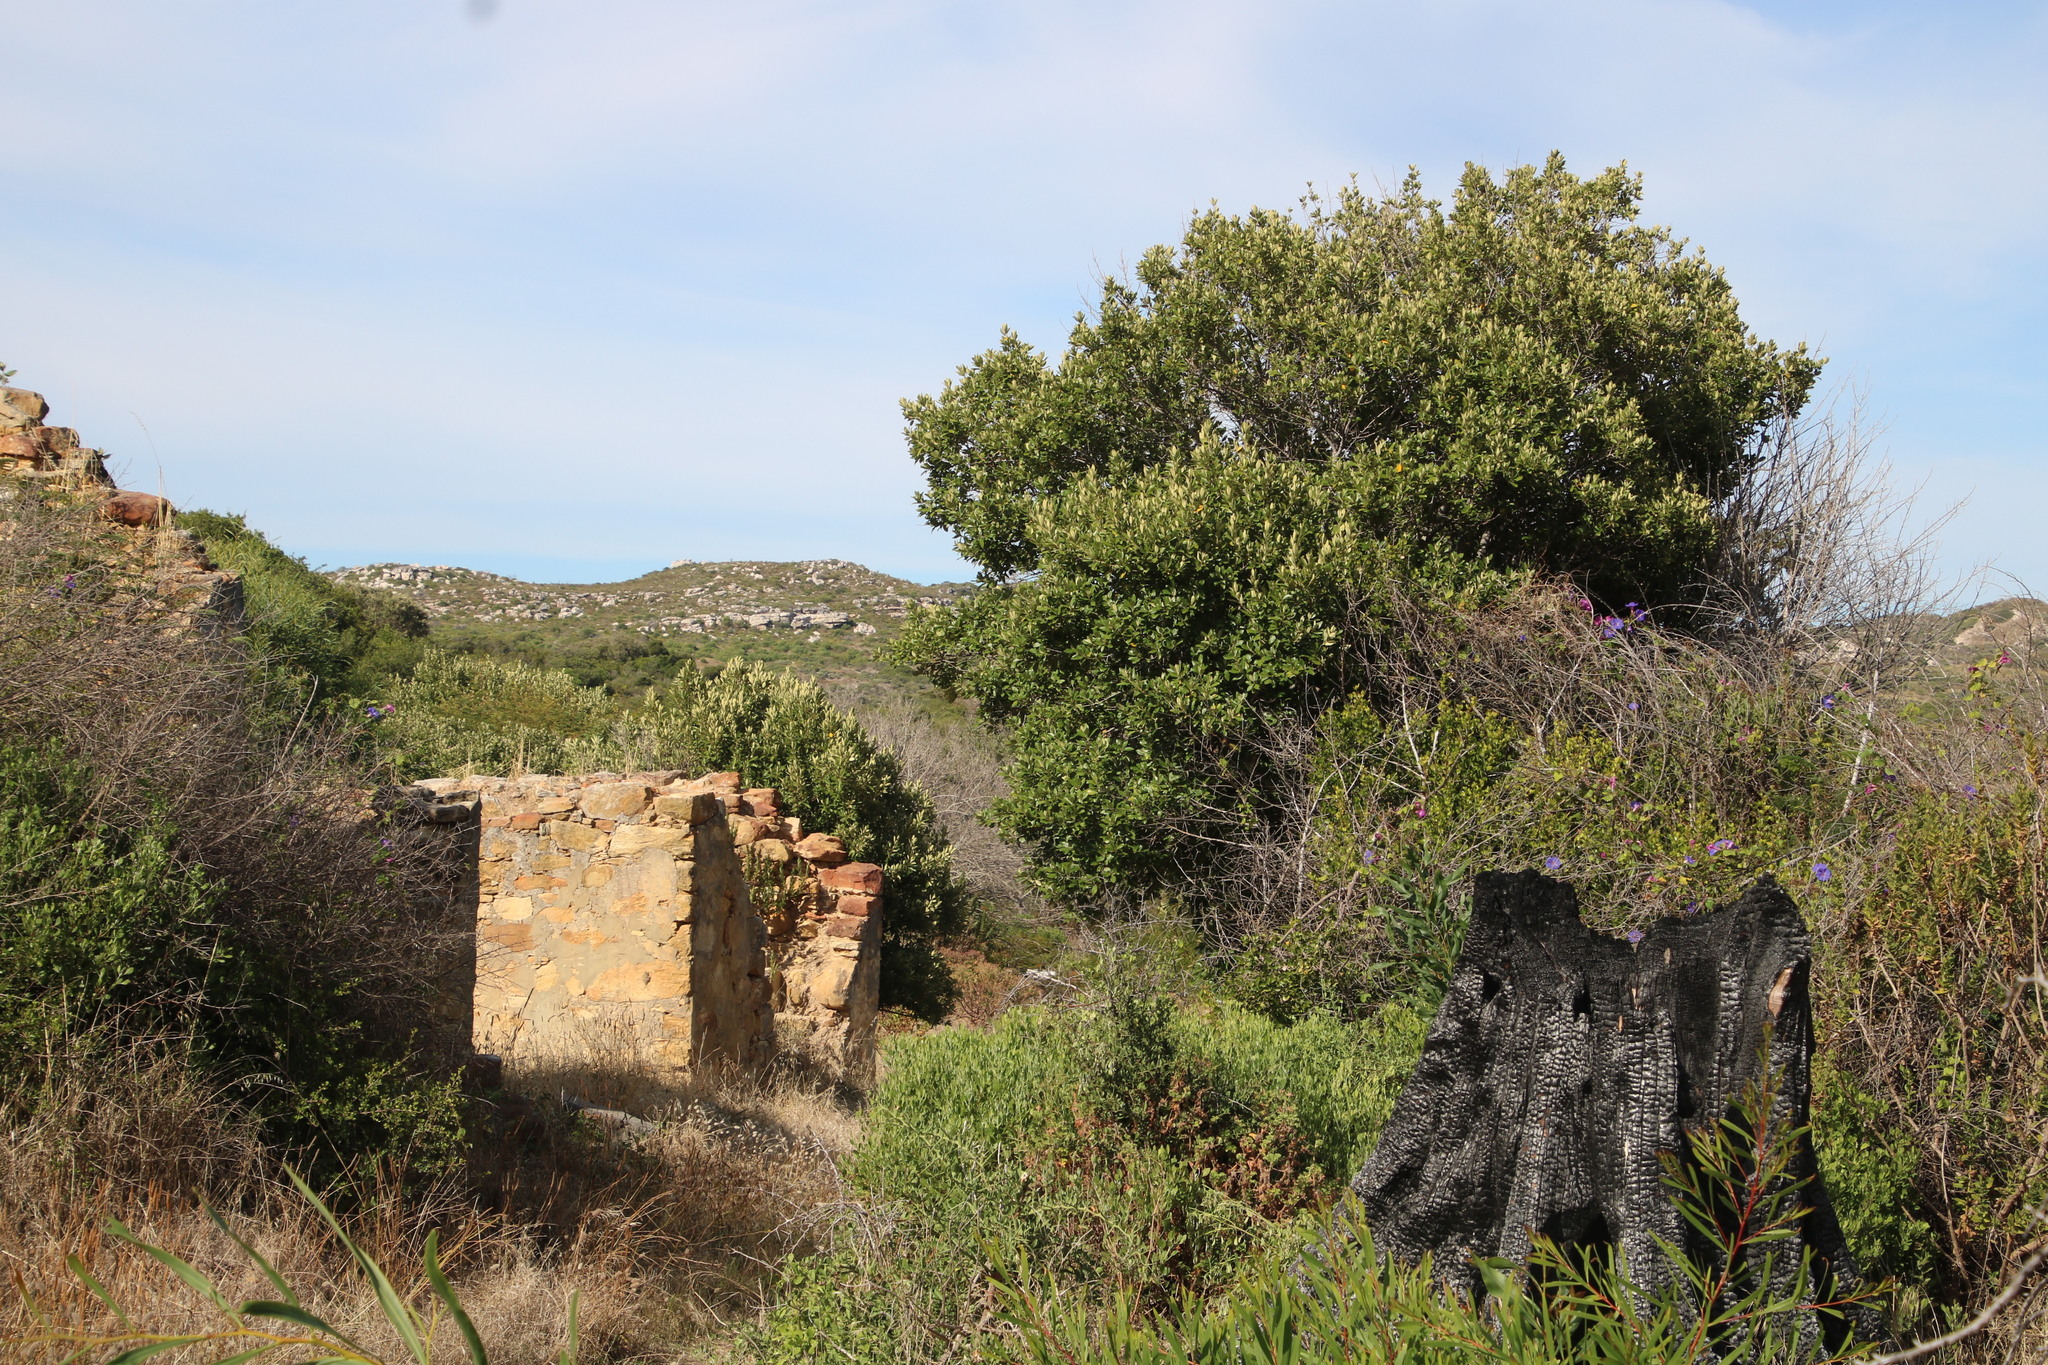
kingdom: Plantae
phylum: Tracheophyta
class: Magnoliopsida
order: Malpighiales
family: Achariaceae
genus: Kiggelaria
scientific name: Kiggelaria africana
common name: Wild peach
